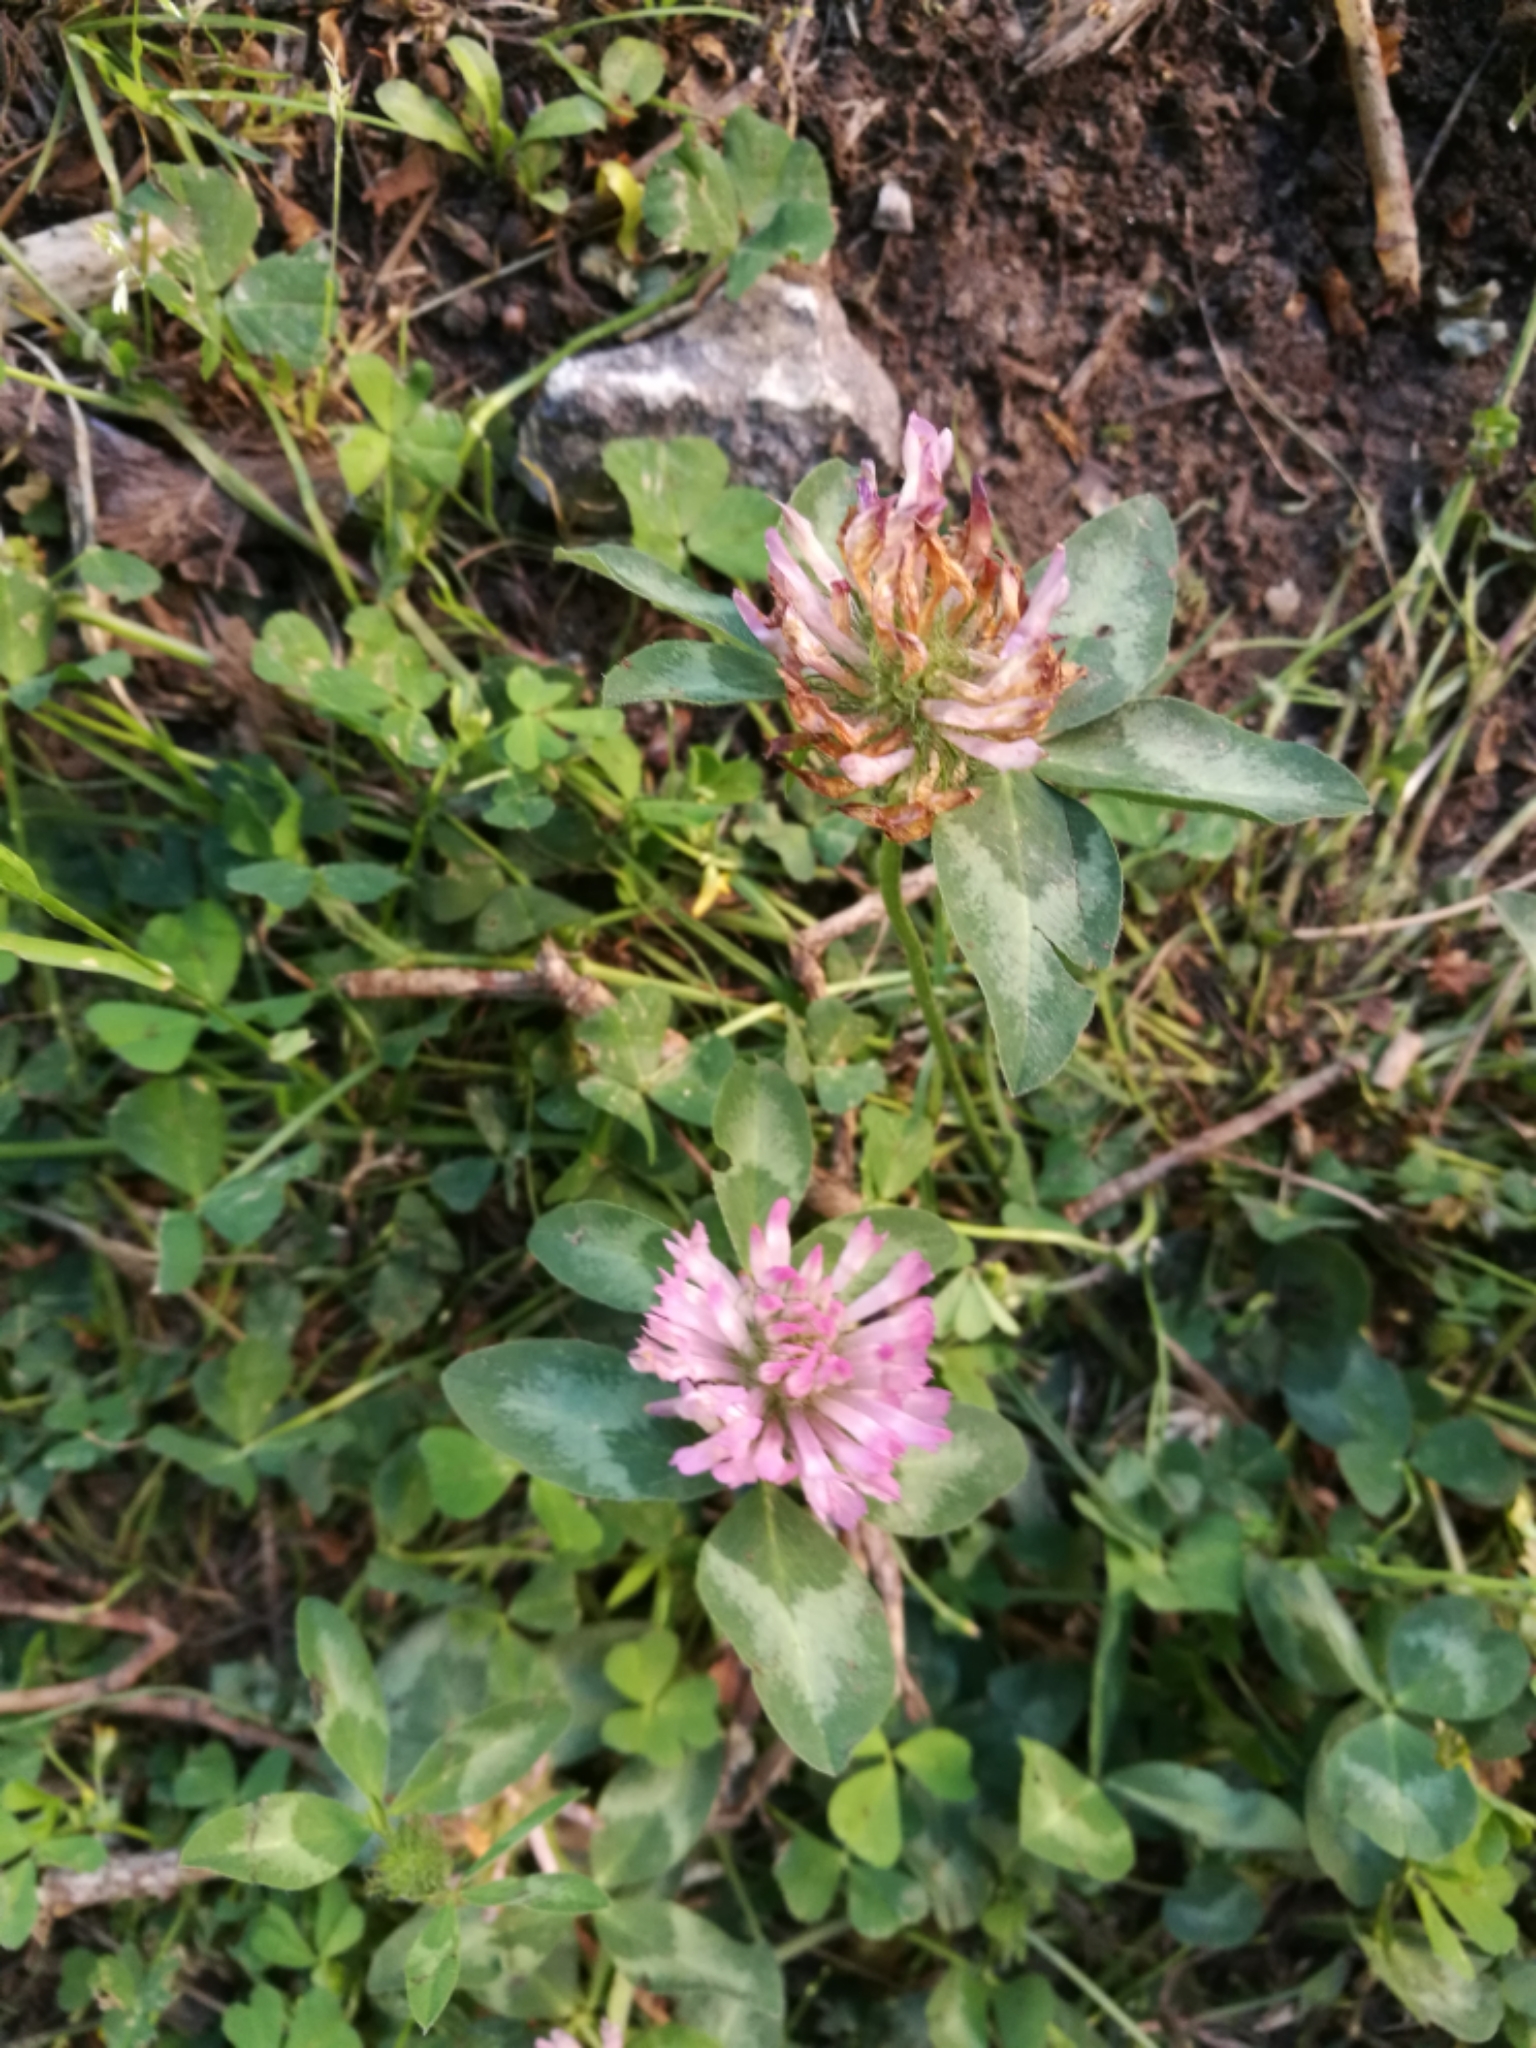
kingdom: Plantae
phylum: Tracheophyta
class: Magnoliopsida
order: Fabales
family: Fabaceae
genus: Trifolium
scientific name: Trifolium pratense
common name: Red clover
